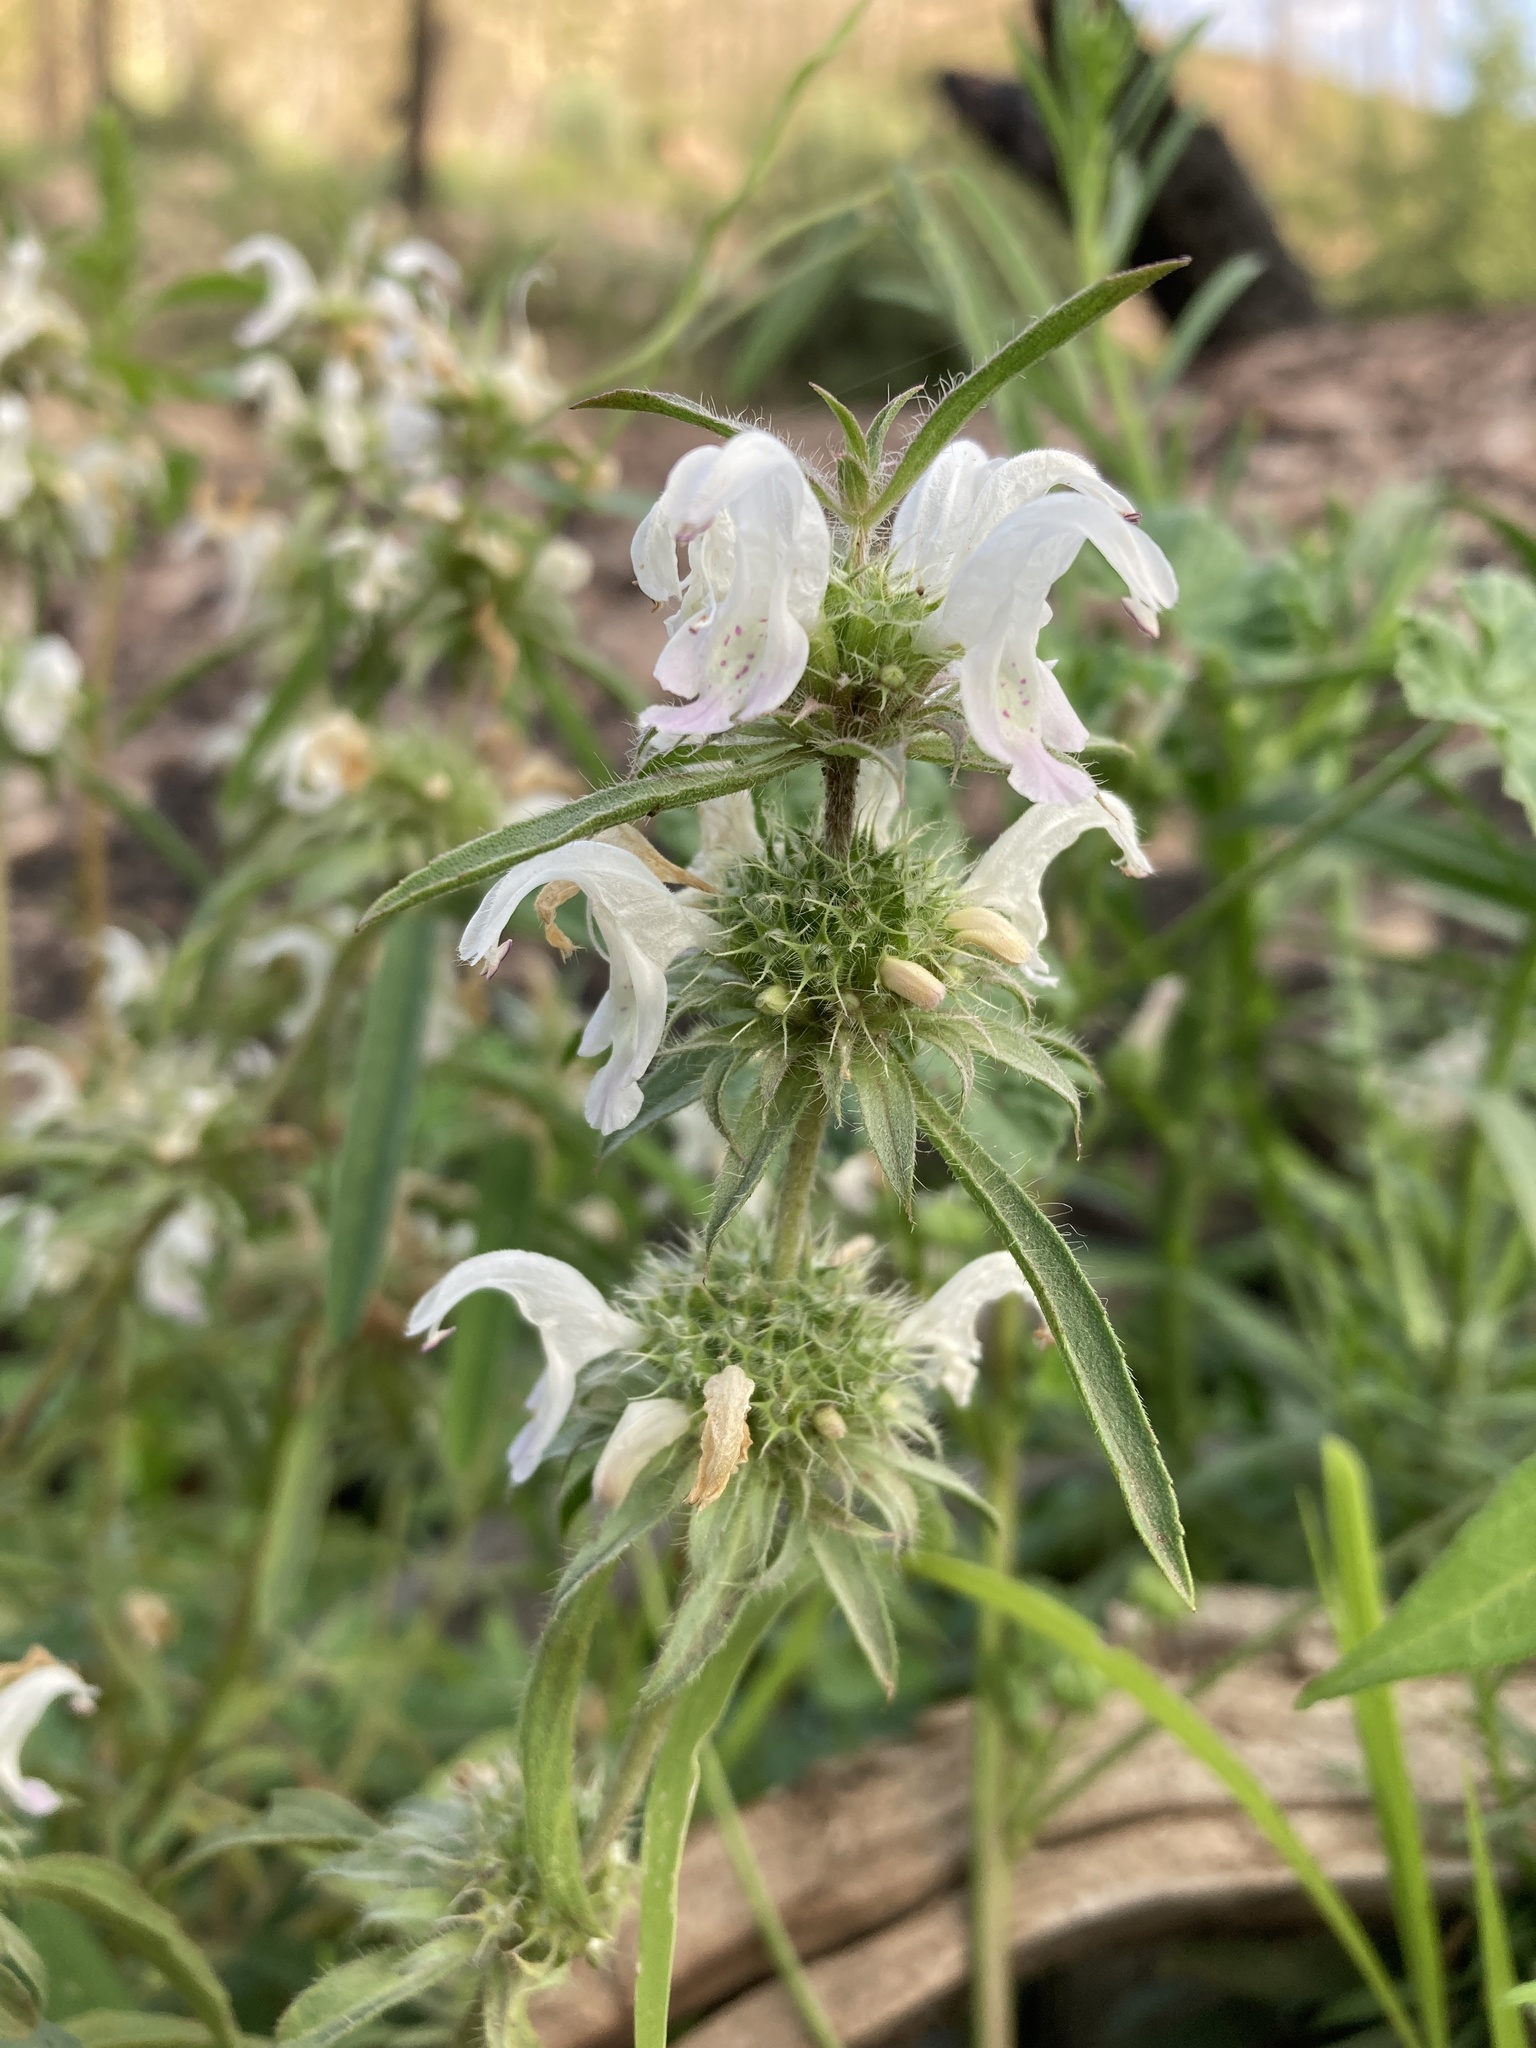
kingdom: Plantae
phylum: Tracheophyta
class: Magnoliopsida
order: Lamiales
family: Lamiaceae
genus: Monarda
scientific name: Monarda pectinata
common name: Plains beebalm
